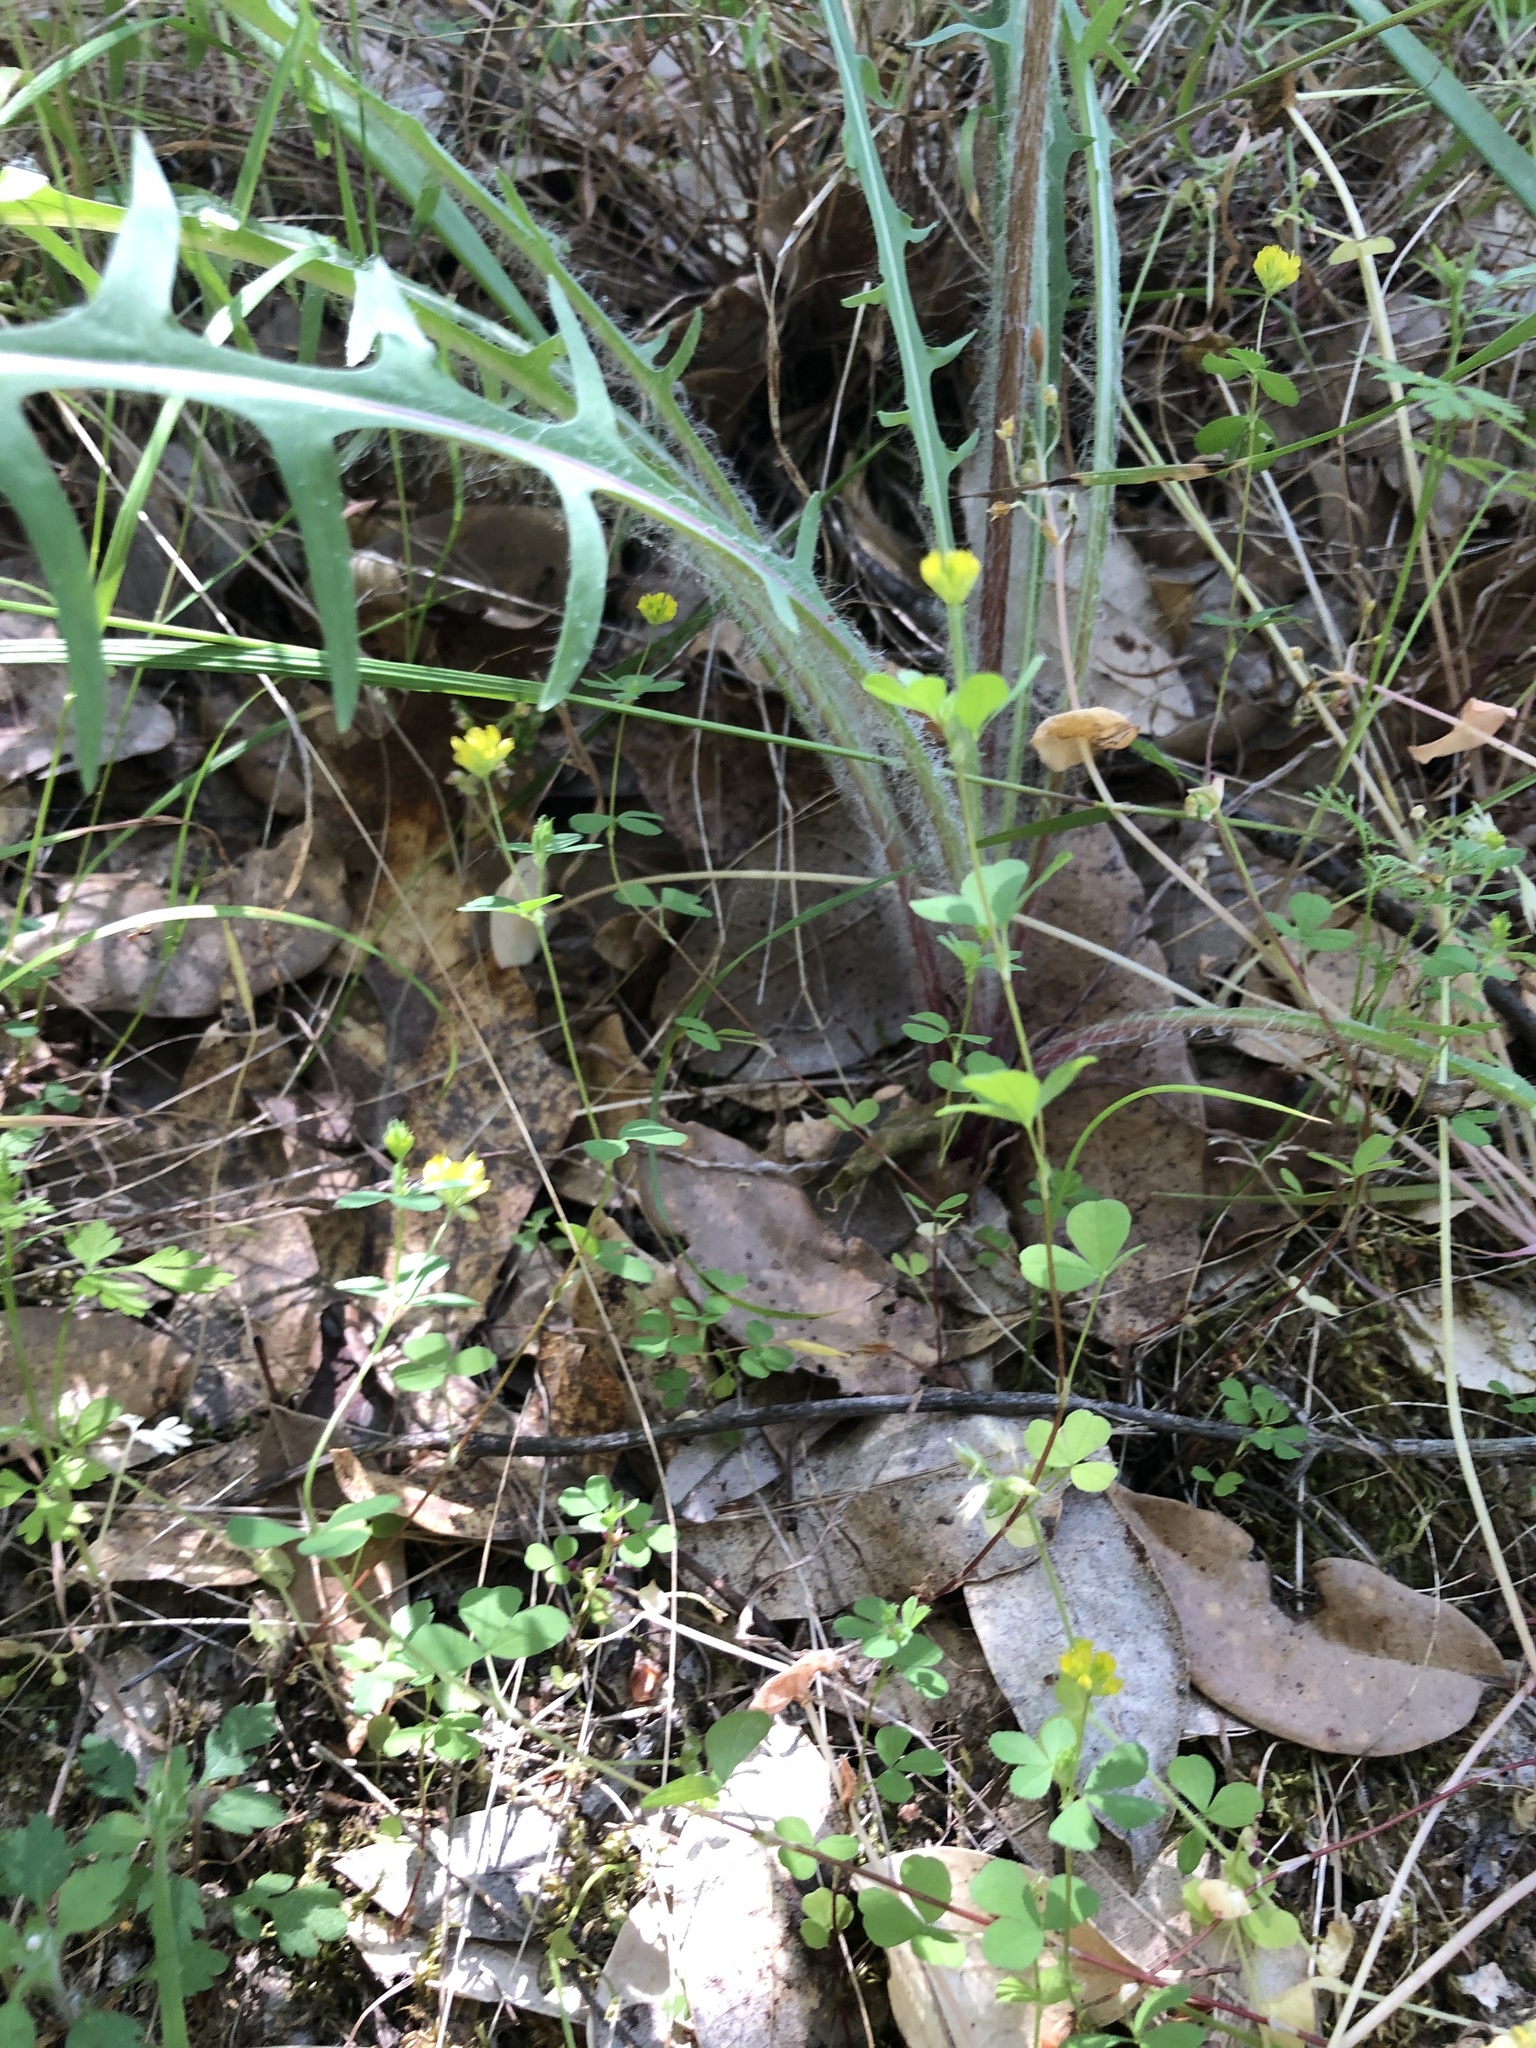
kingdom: Plantae
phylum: Tracheophyta
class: Magnoliopsida
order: Fabales
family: Fabaceae
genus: Trifolium
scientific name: Trifolium dubium
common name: Suckling clover
